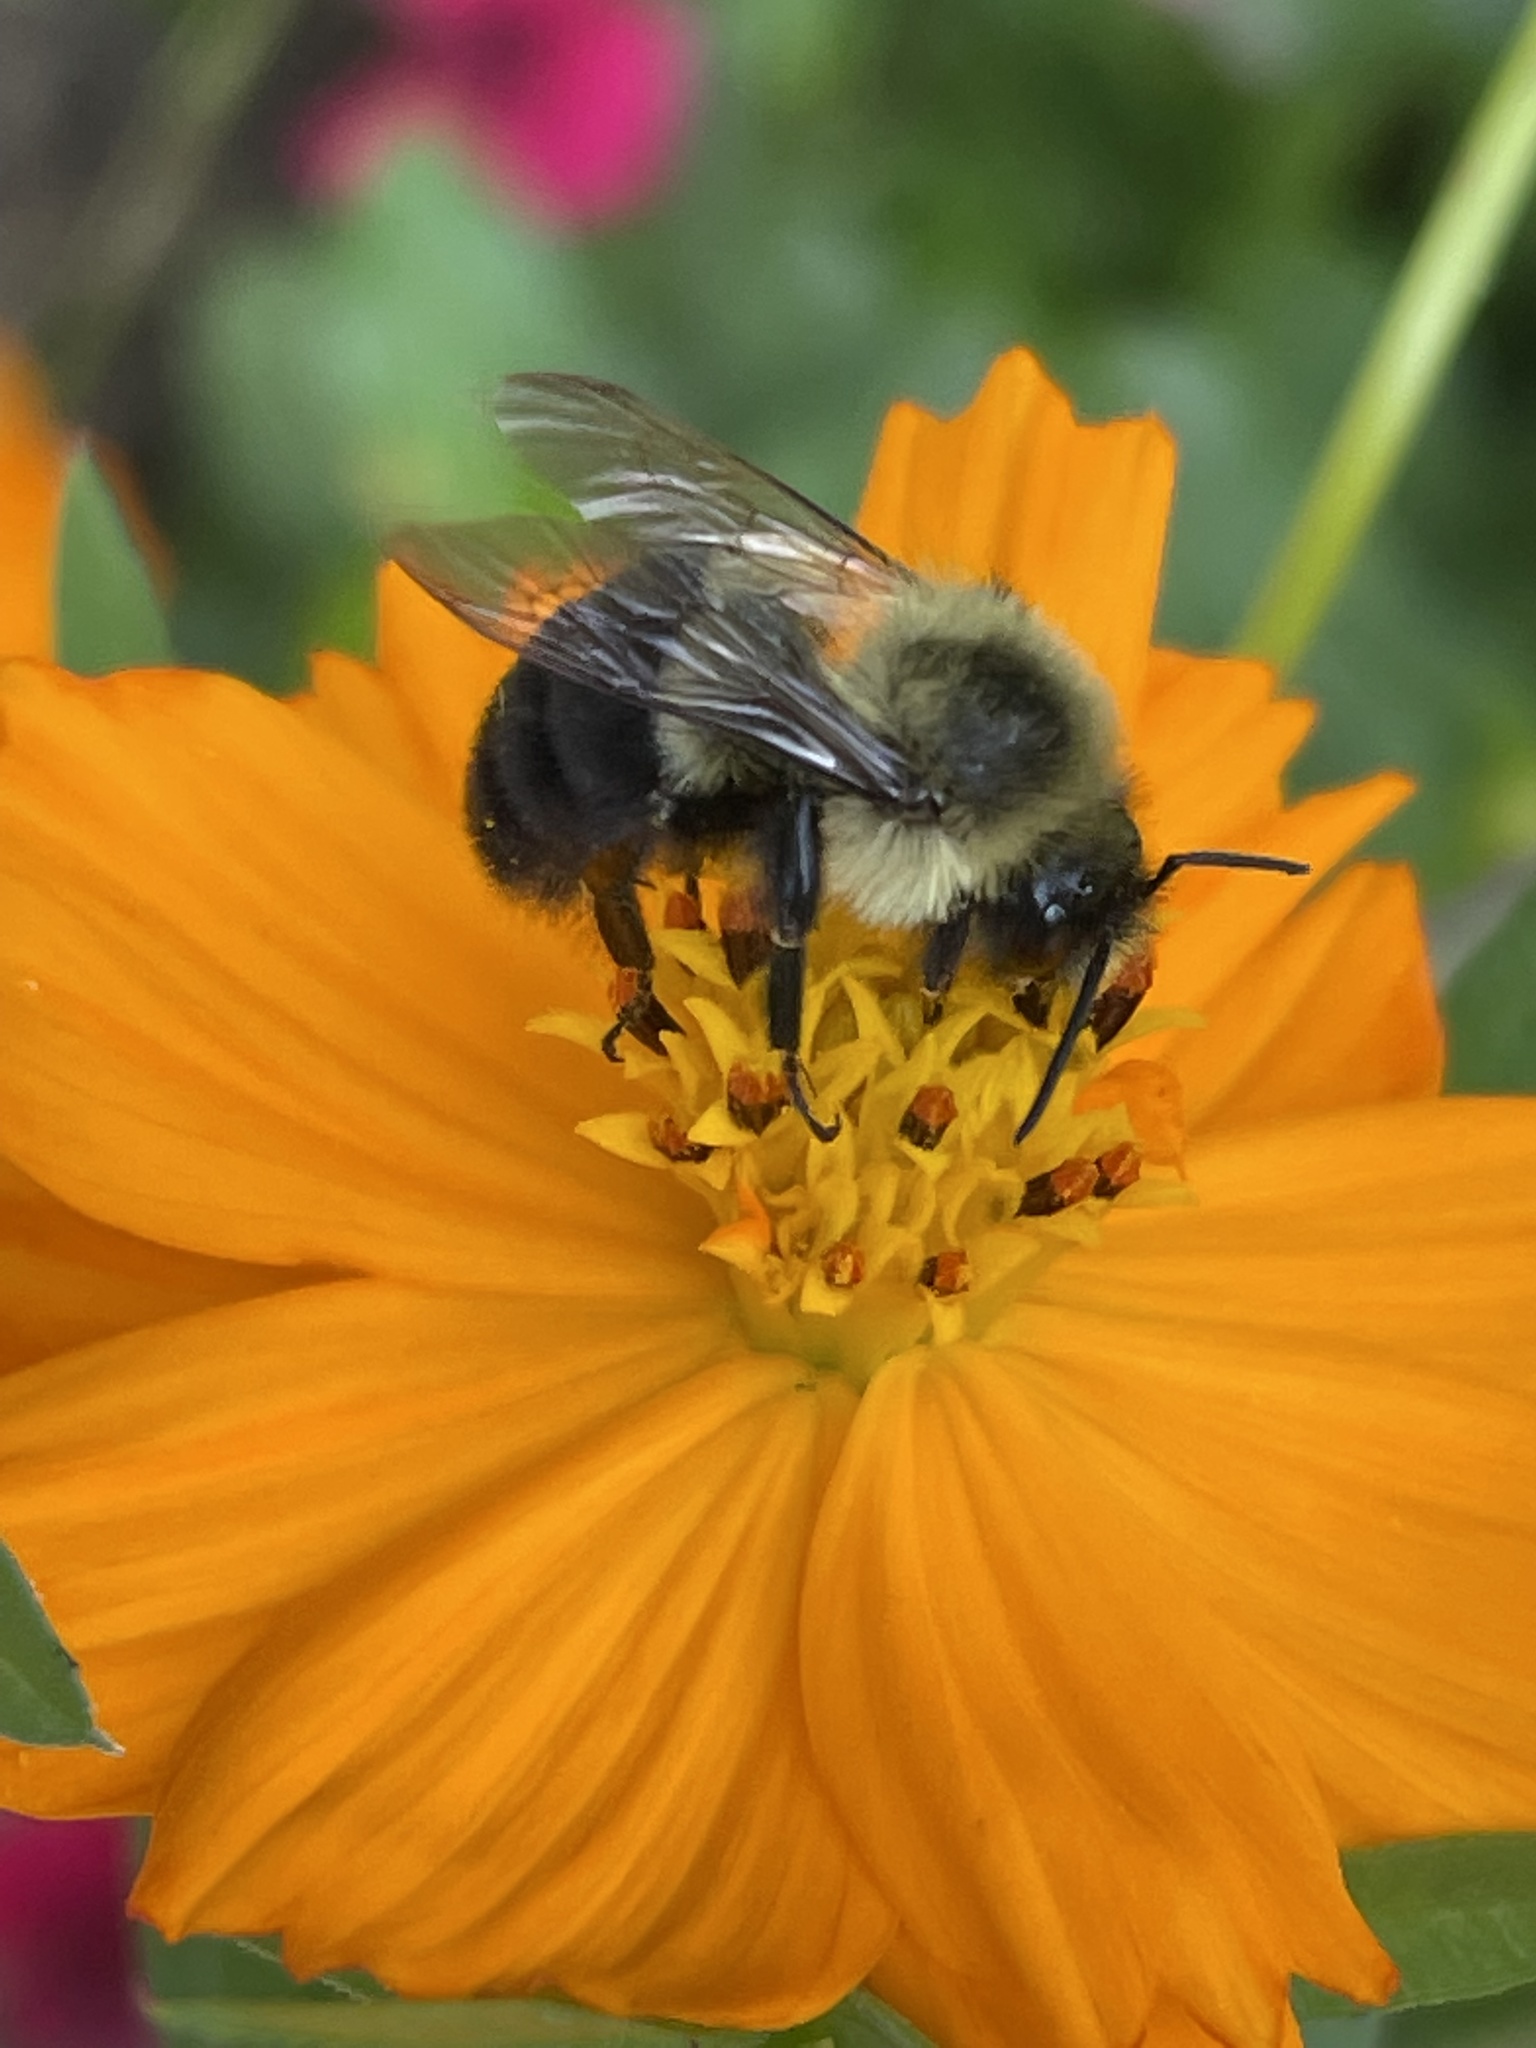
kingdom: Animalia
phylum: Arthropoda
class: Insecta
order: Hymenoptera
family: Apidae
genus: Bombus
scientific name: Bombus impatiens
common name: Common eastern bumble bee
